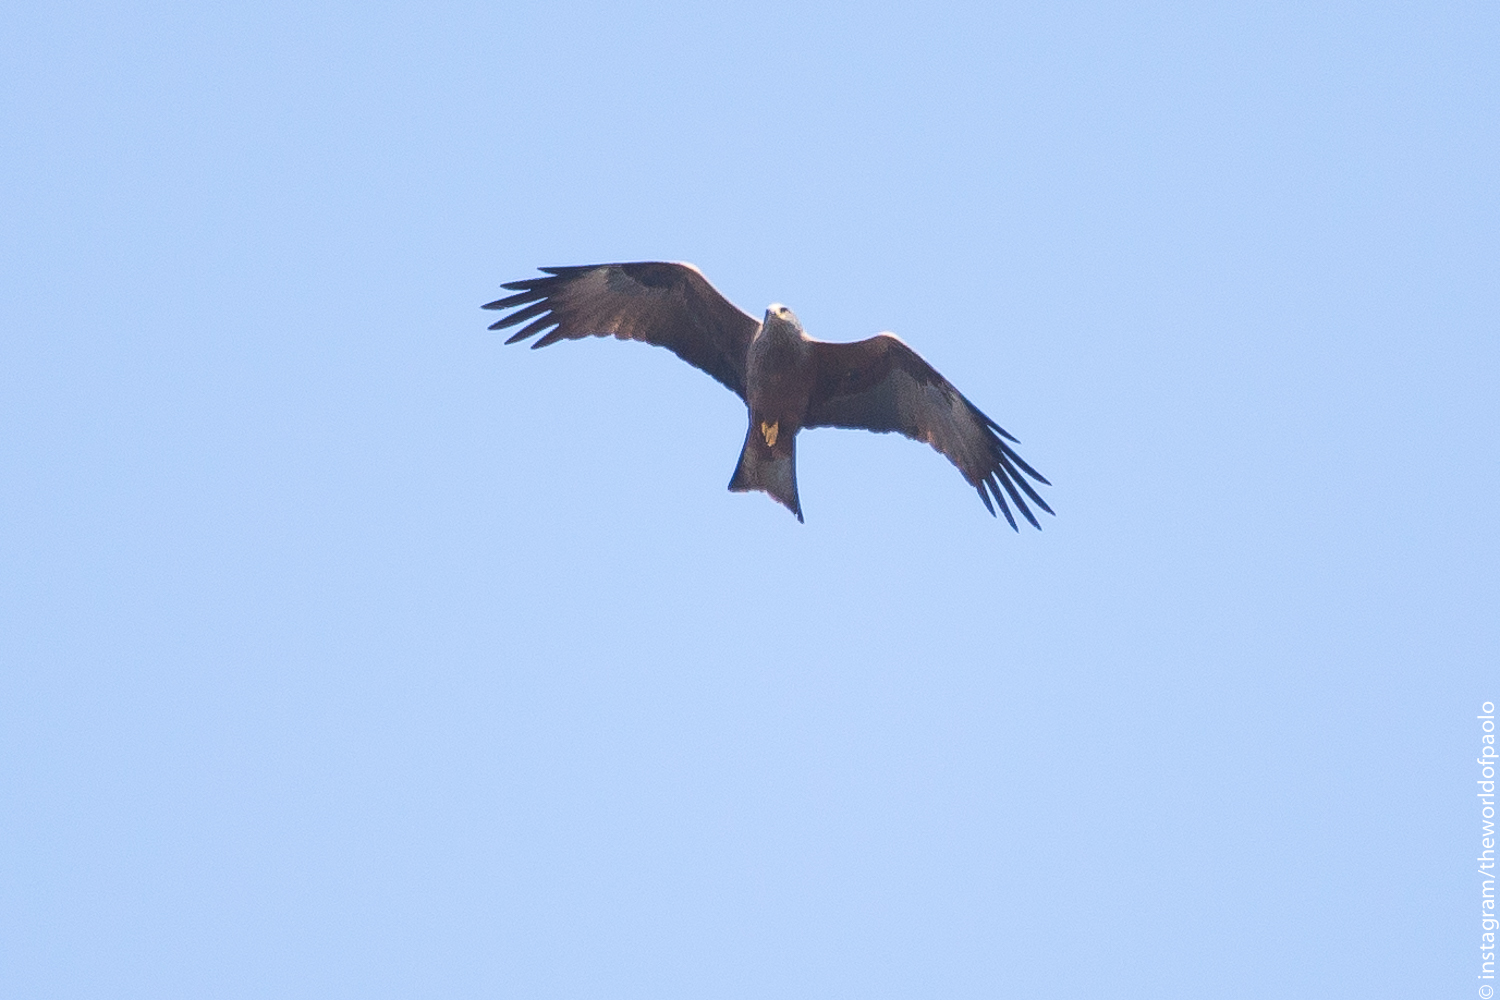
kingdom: Animalia
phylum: Chordata
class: Aves
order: Accipitriformes
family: Accipitridae
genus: Milvus
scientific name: Milvus migrans
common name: Black kite
